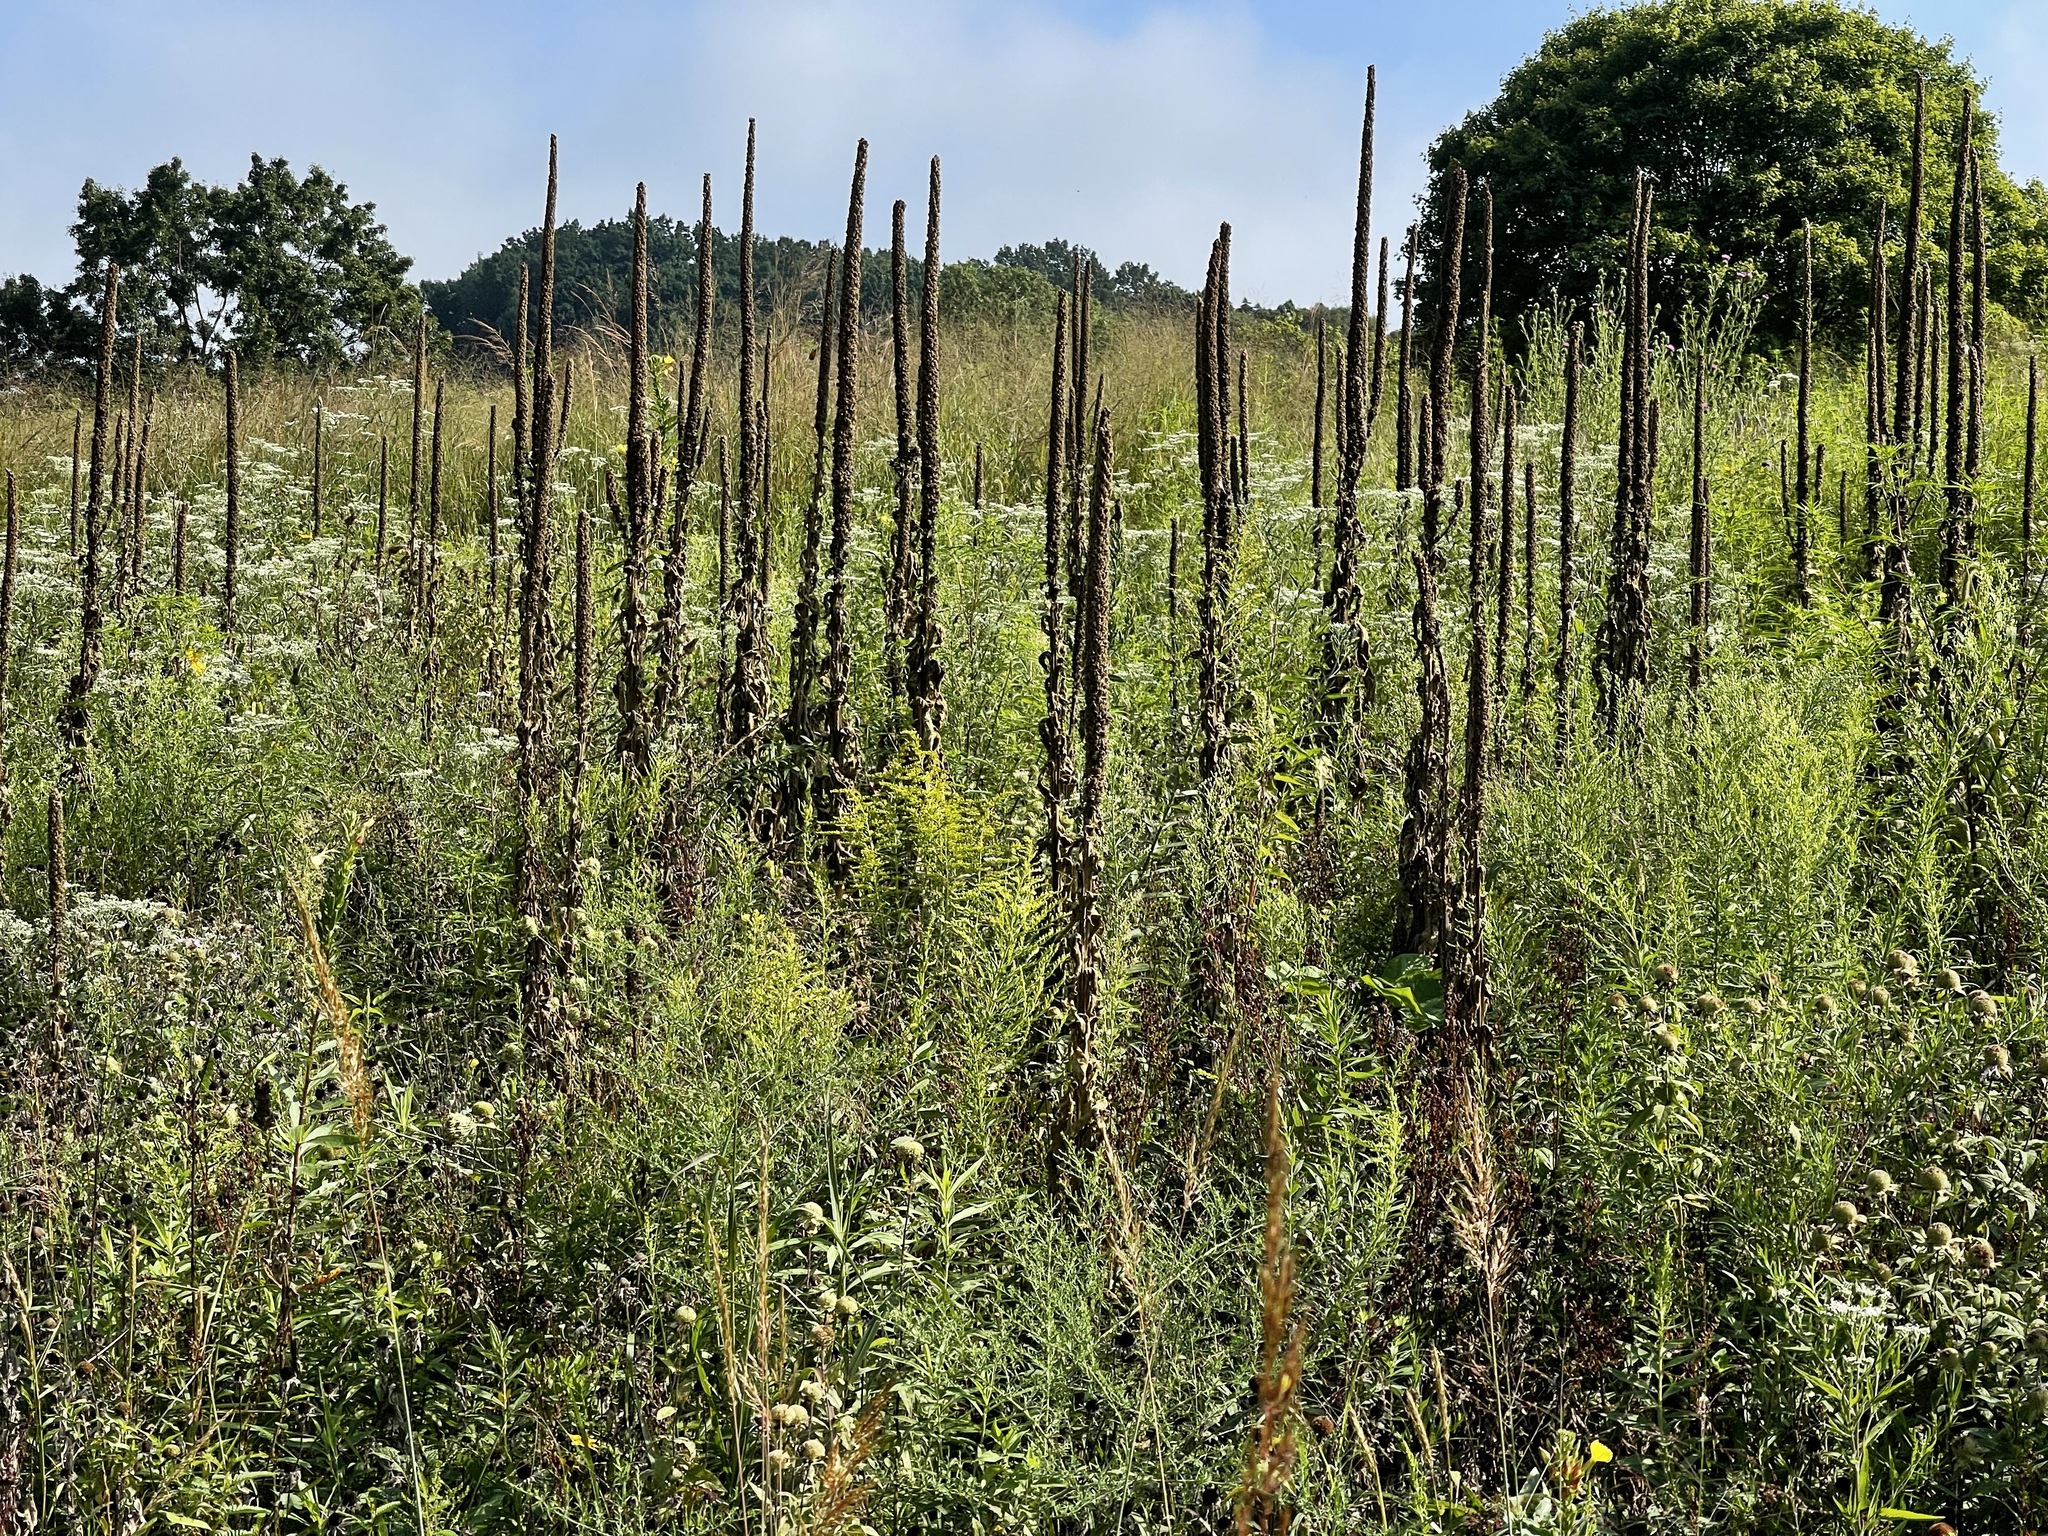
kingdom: Plantae
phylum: Tracheophyta
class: Magnoliopsida
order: Lamiales
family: Scrophulariaceae
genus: Verbascum
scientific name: Verbascum thapsus
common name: Common mullein
